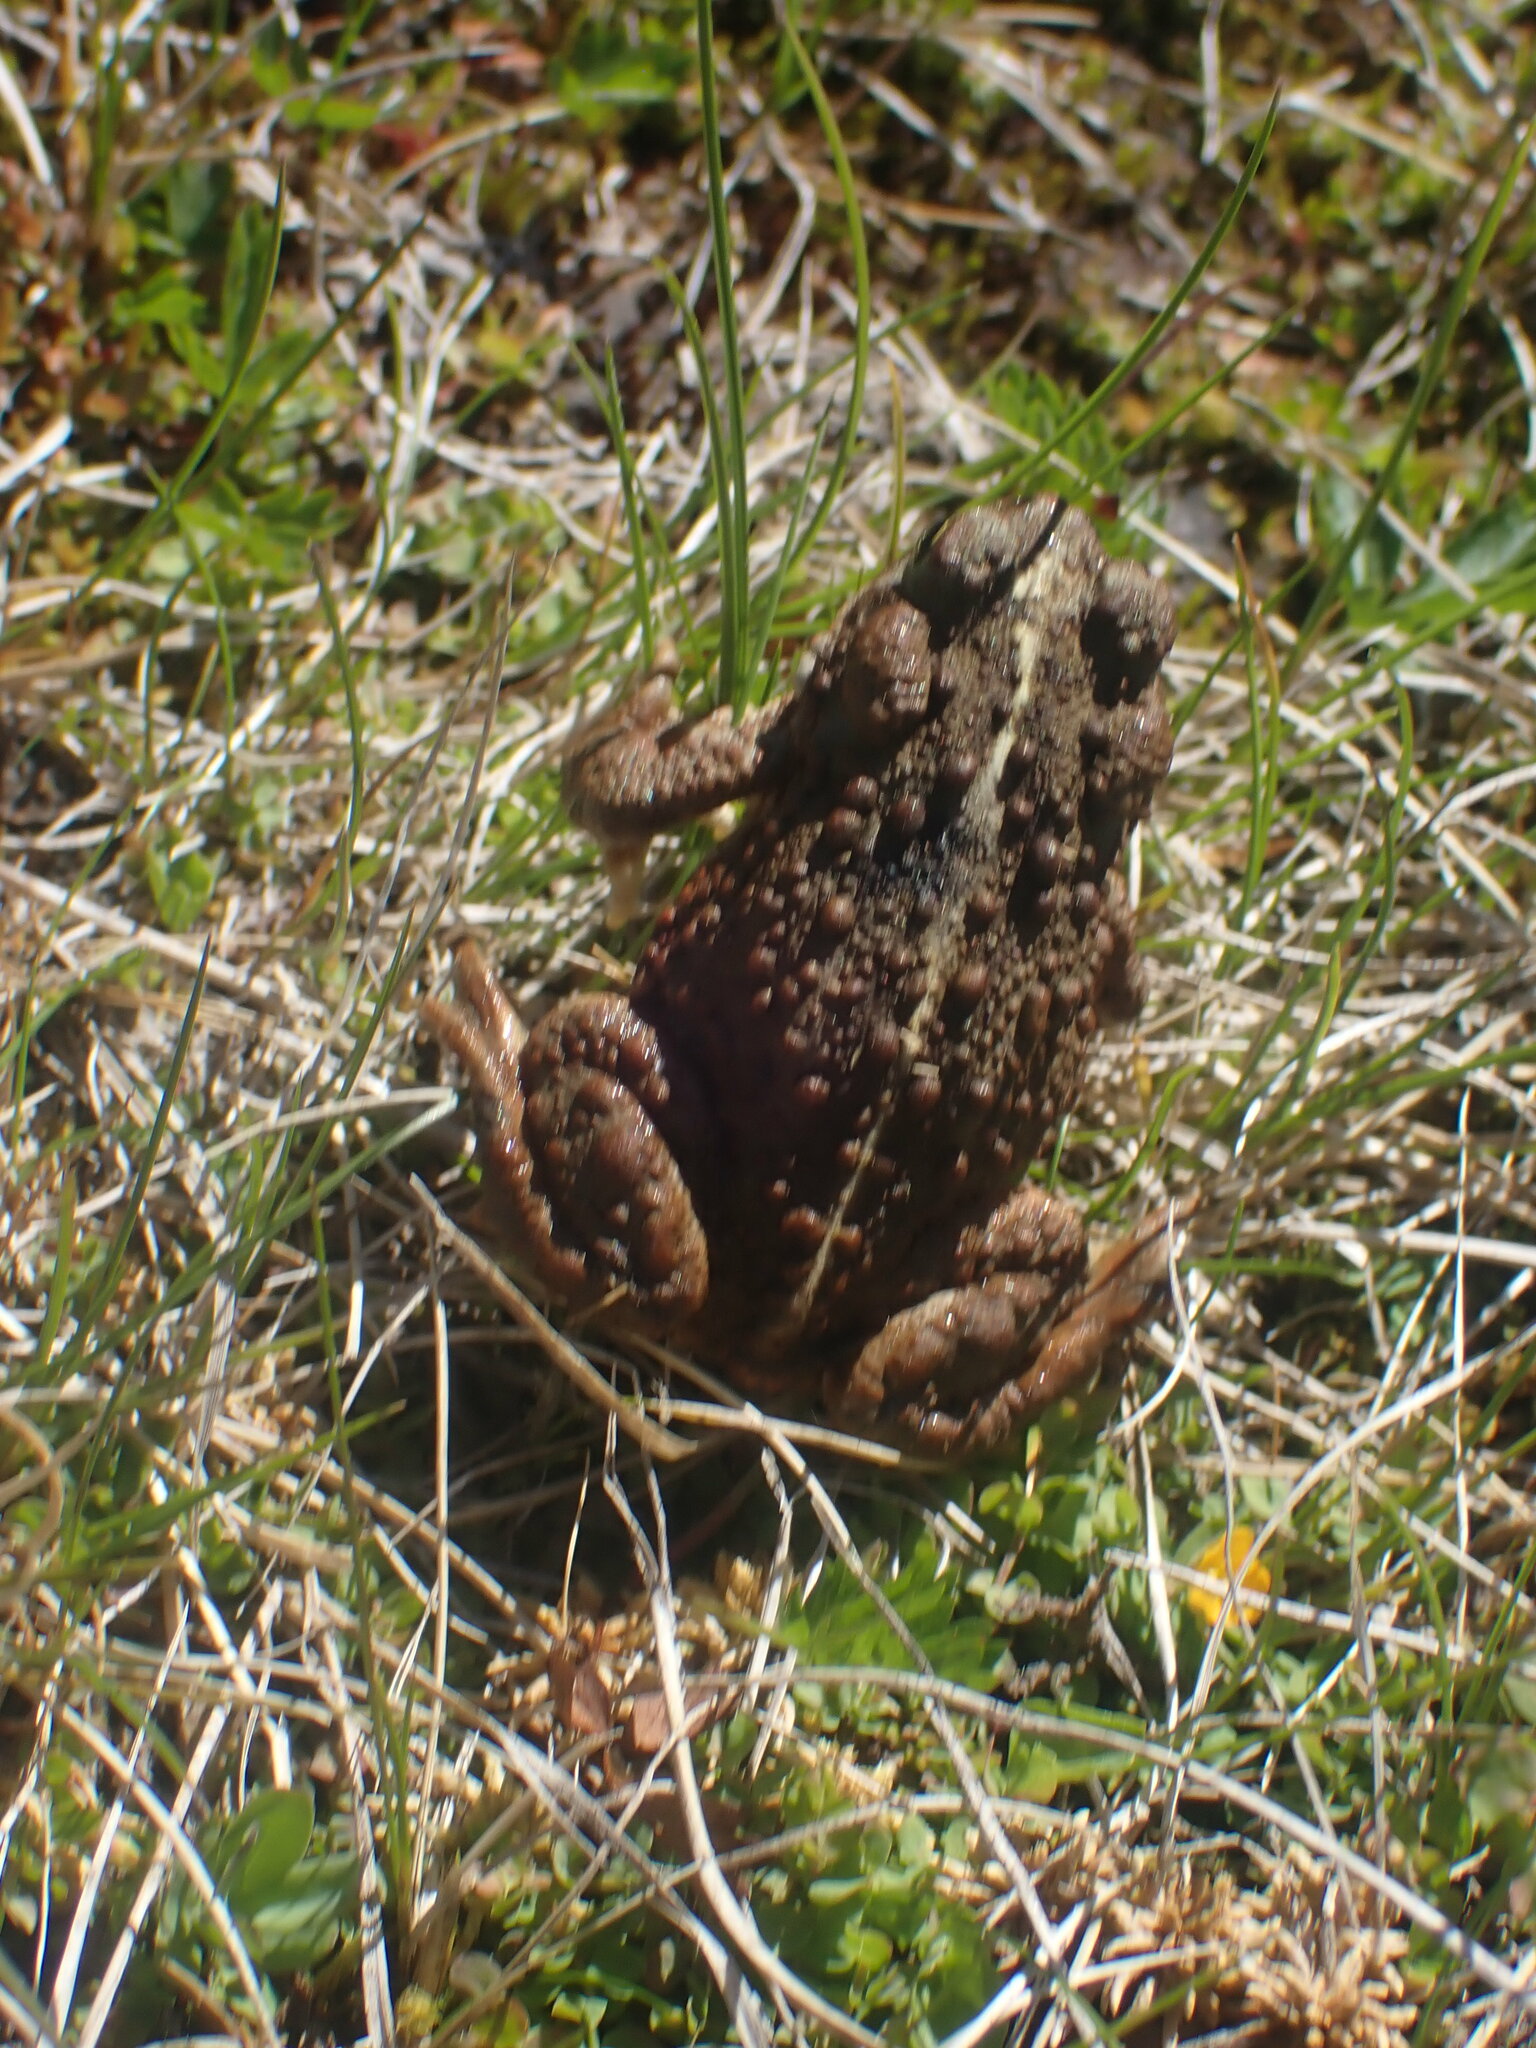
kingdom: Animalia
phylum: Chordata
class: Amphibia
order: Anura
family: Bufonidae
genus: Anaxyrus
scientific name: Anaxyrus boreas
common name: Western toad
